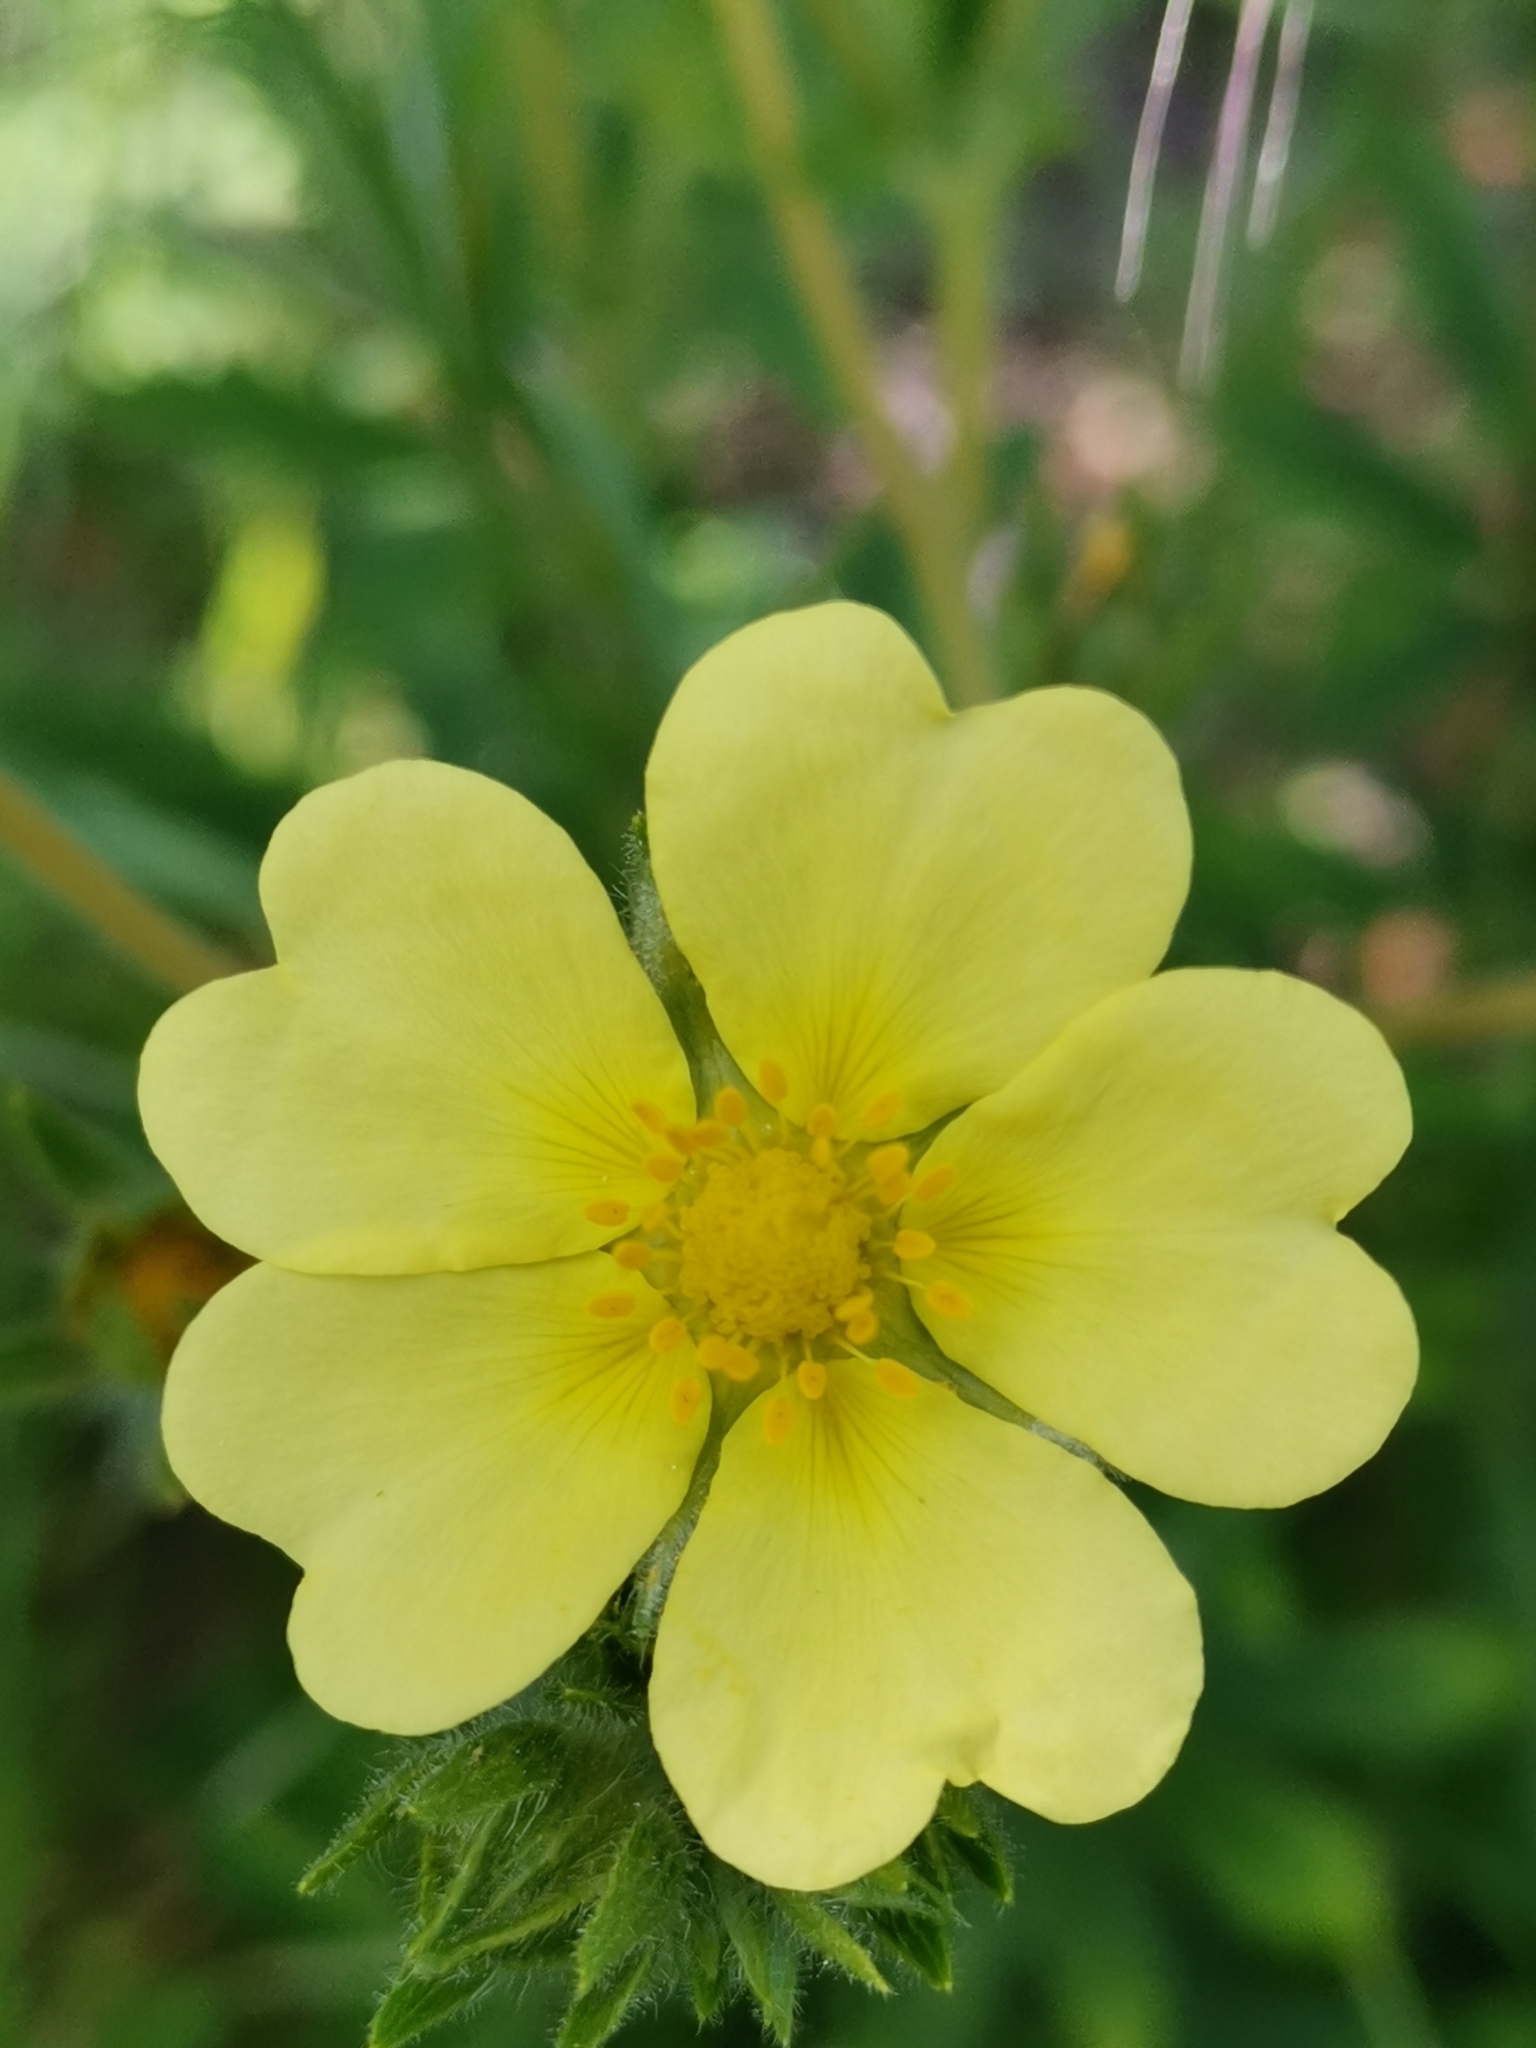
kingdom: Plantae
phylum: Tracheophyta
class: Magnoliopsida
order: Rosales
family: Rosaceae
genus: Potentilla
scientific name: Potentilla recta
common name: Sulphur cinquefoil
